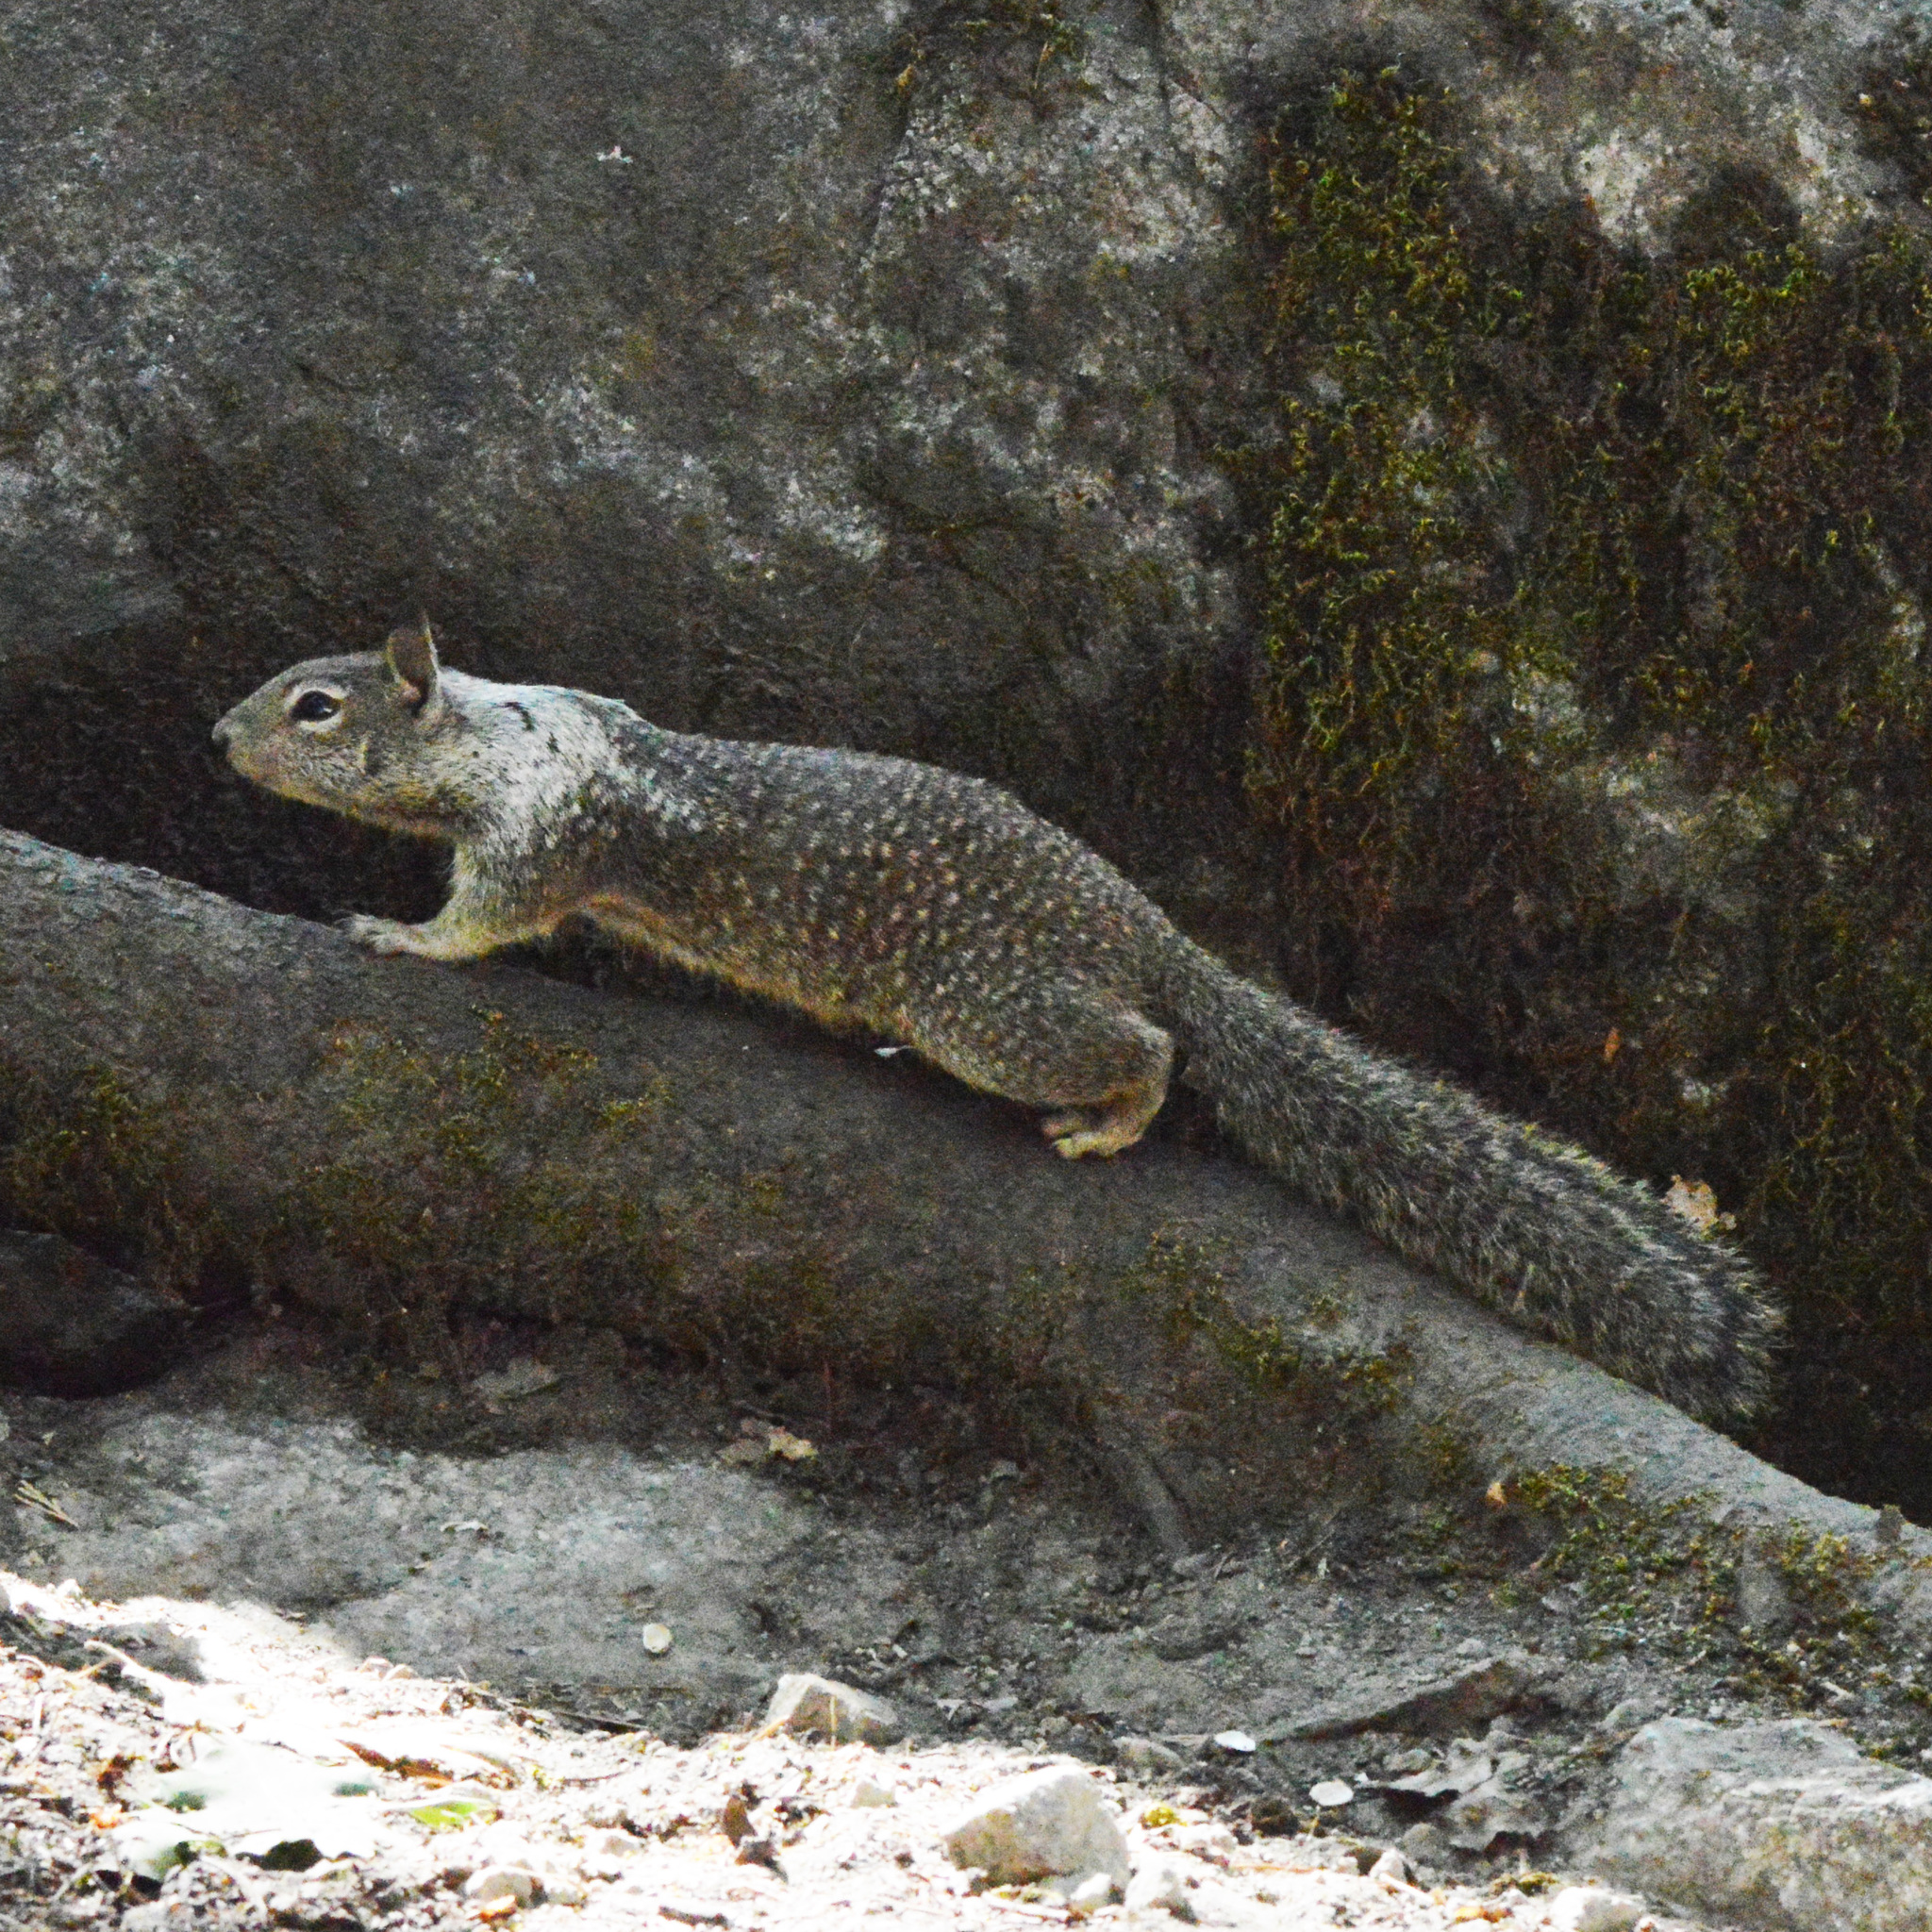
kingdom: Animalia
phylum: Chordata
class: Mammalia
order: Rodentia
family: Sciuridae
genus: Otospermophilus
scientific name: Otospermophilus beecheyi
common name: California ground squirrel
